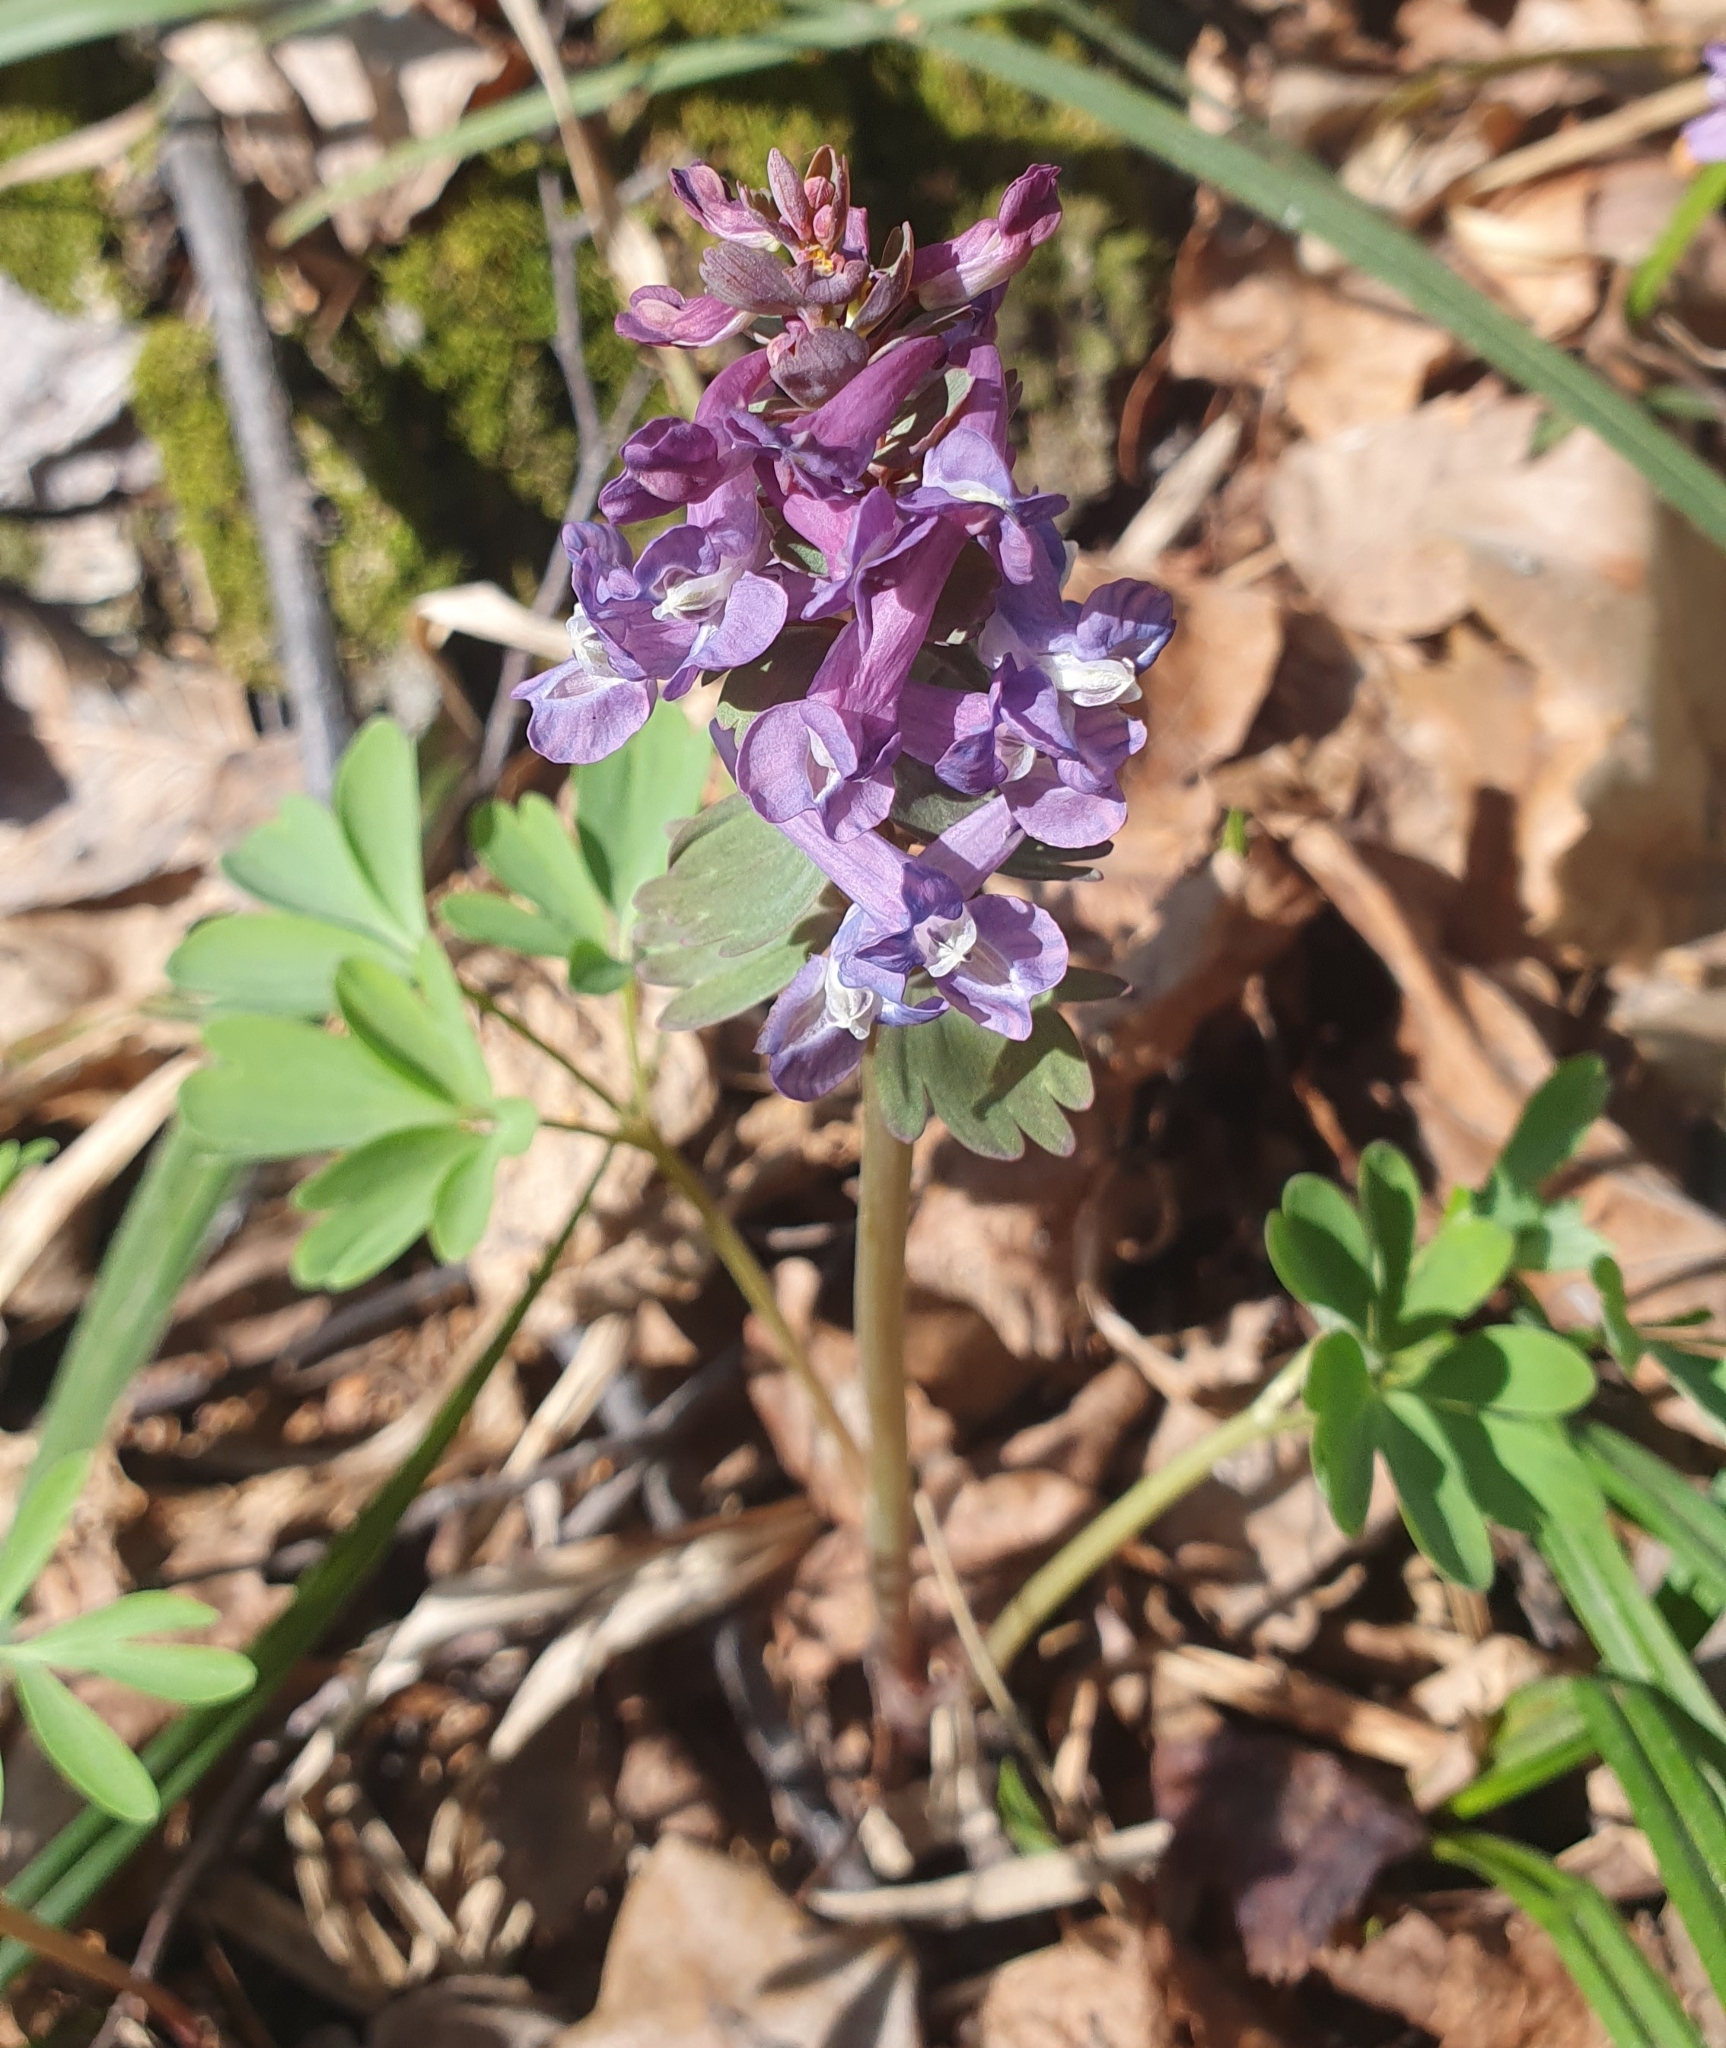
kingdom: Plantae
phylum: Tracheophyta
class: Magnoliopsida
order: Ranunculales
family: Papaveraceae
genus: Corydalis
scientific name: Corydalis solida
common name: Bird-in-a-bush
